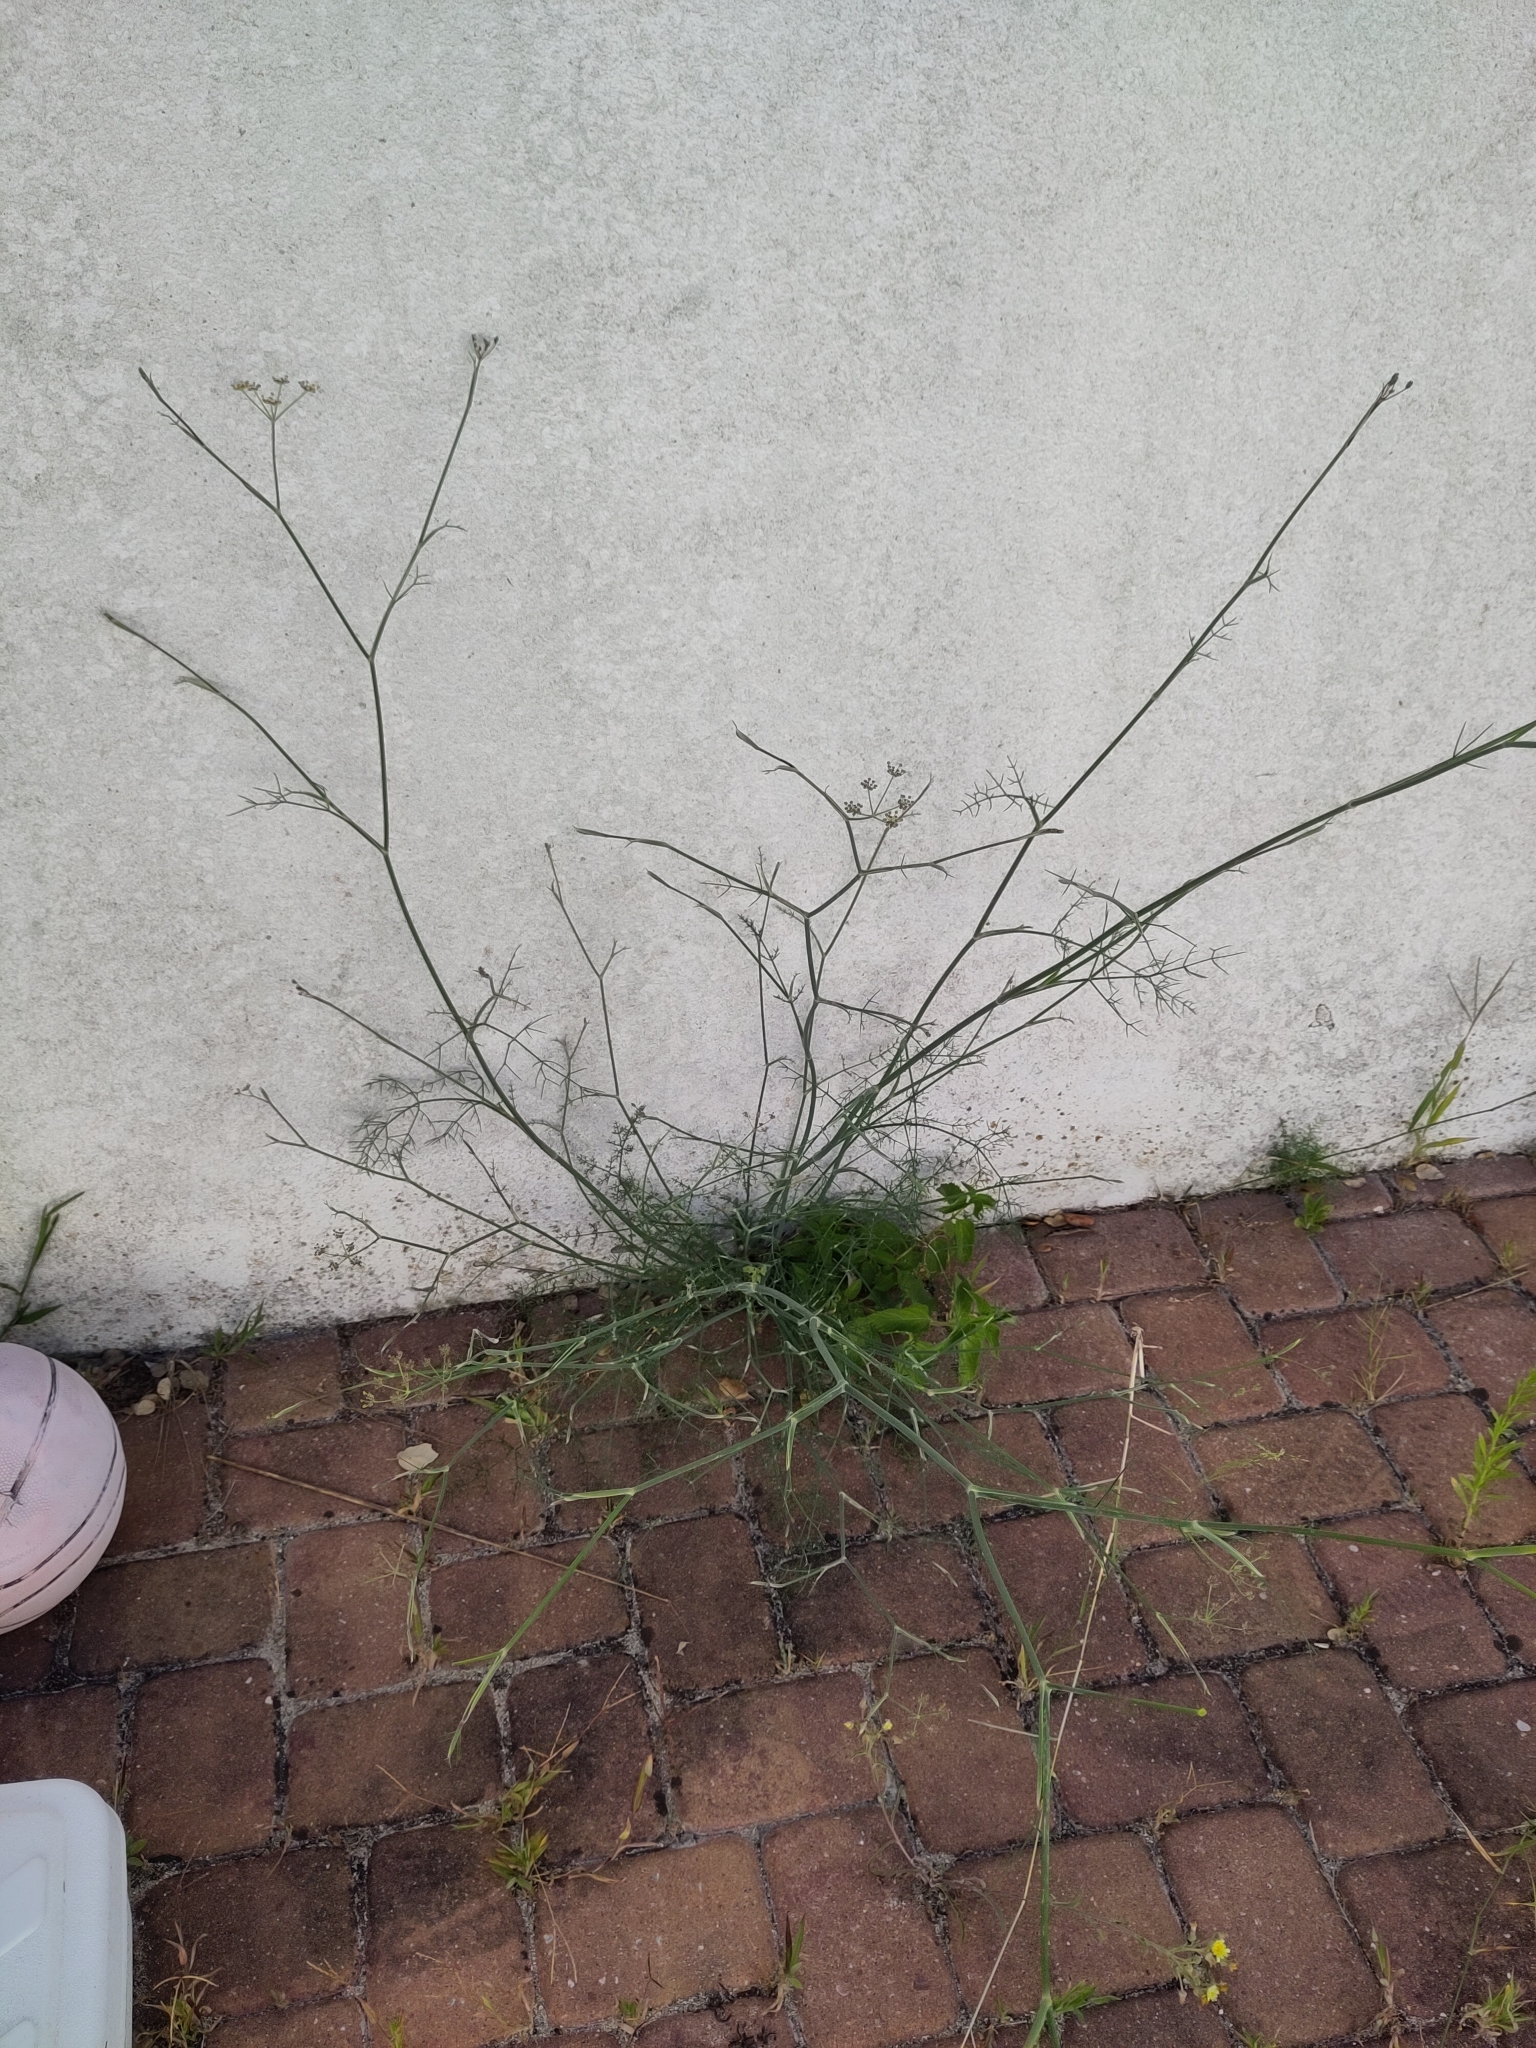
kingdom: Plantae
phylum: Tracheophyta
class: Magnoliopsida
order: Apiales
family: Apiaceae
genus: Foeniculum
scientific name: Foeniculum vulgare
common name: Fennel
